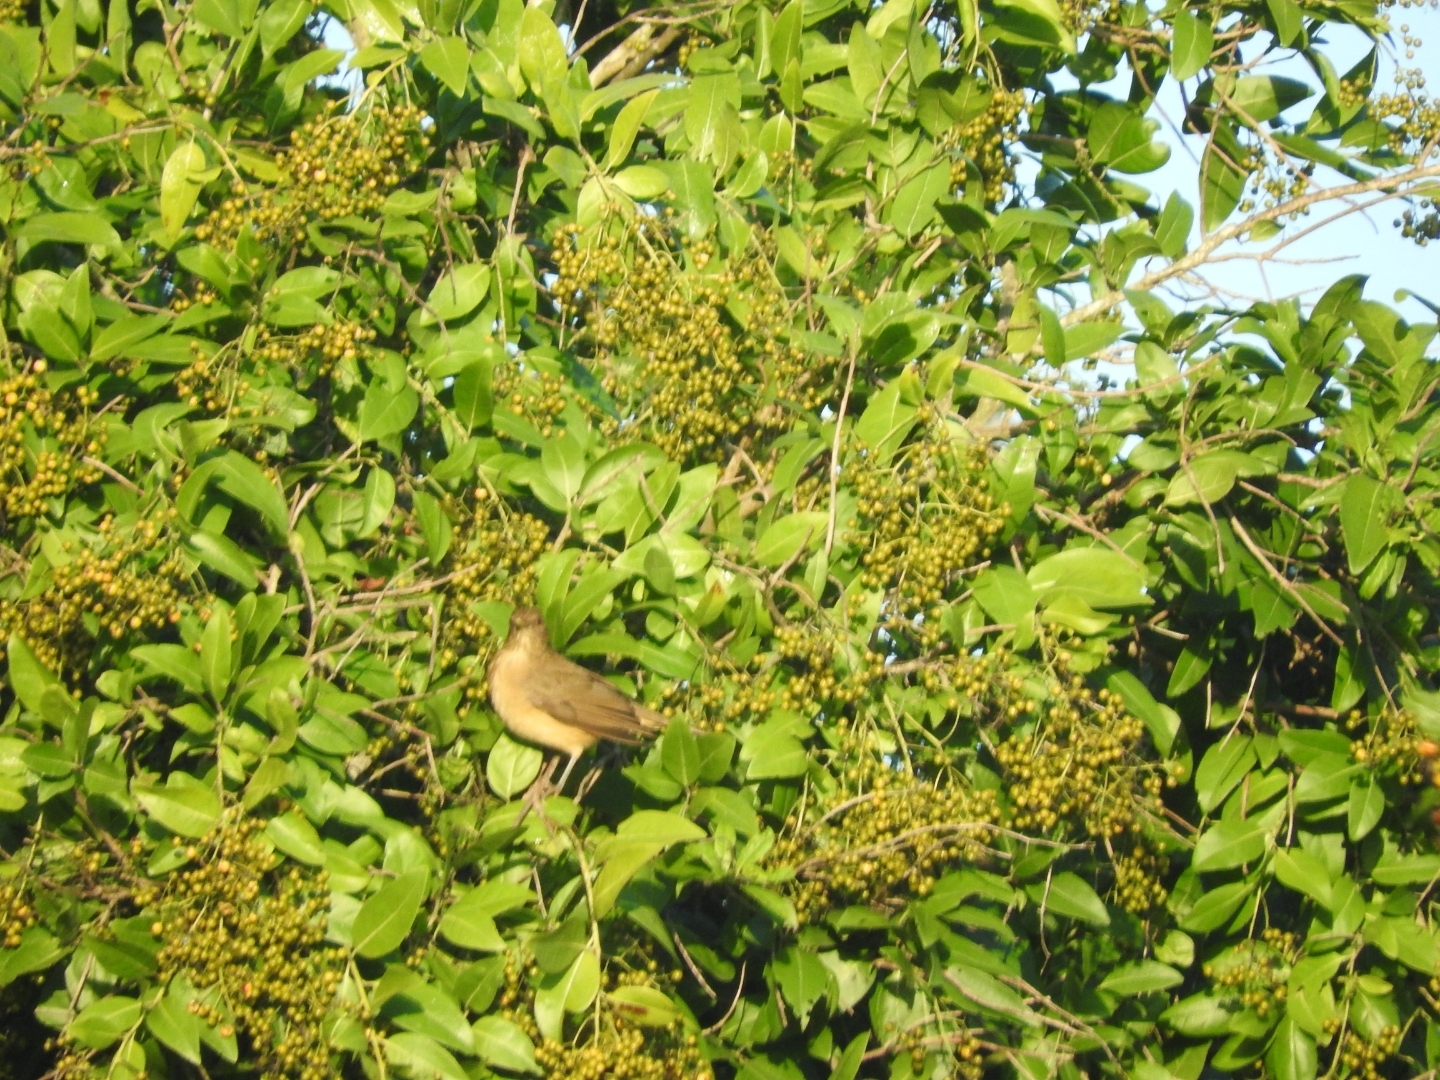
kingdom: Animalia
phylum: Chordata
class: Aves
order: Passeriformes
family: Turdidae
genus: Turdus
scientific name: Turdus grayi
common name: Clay-colored thrush
